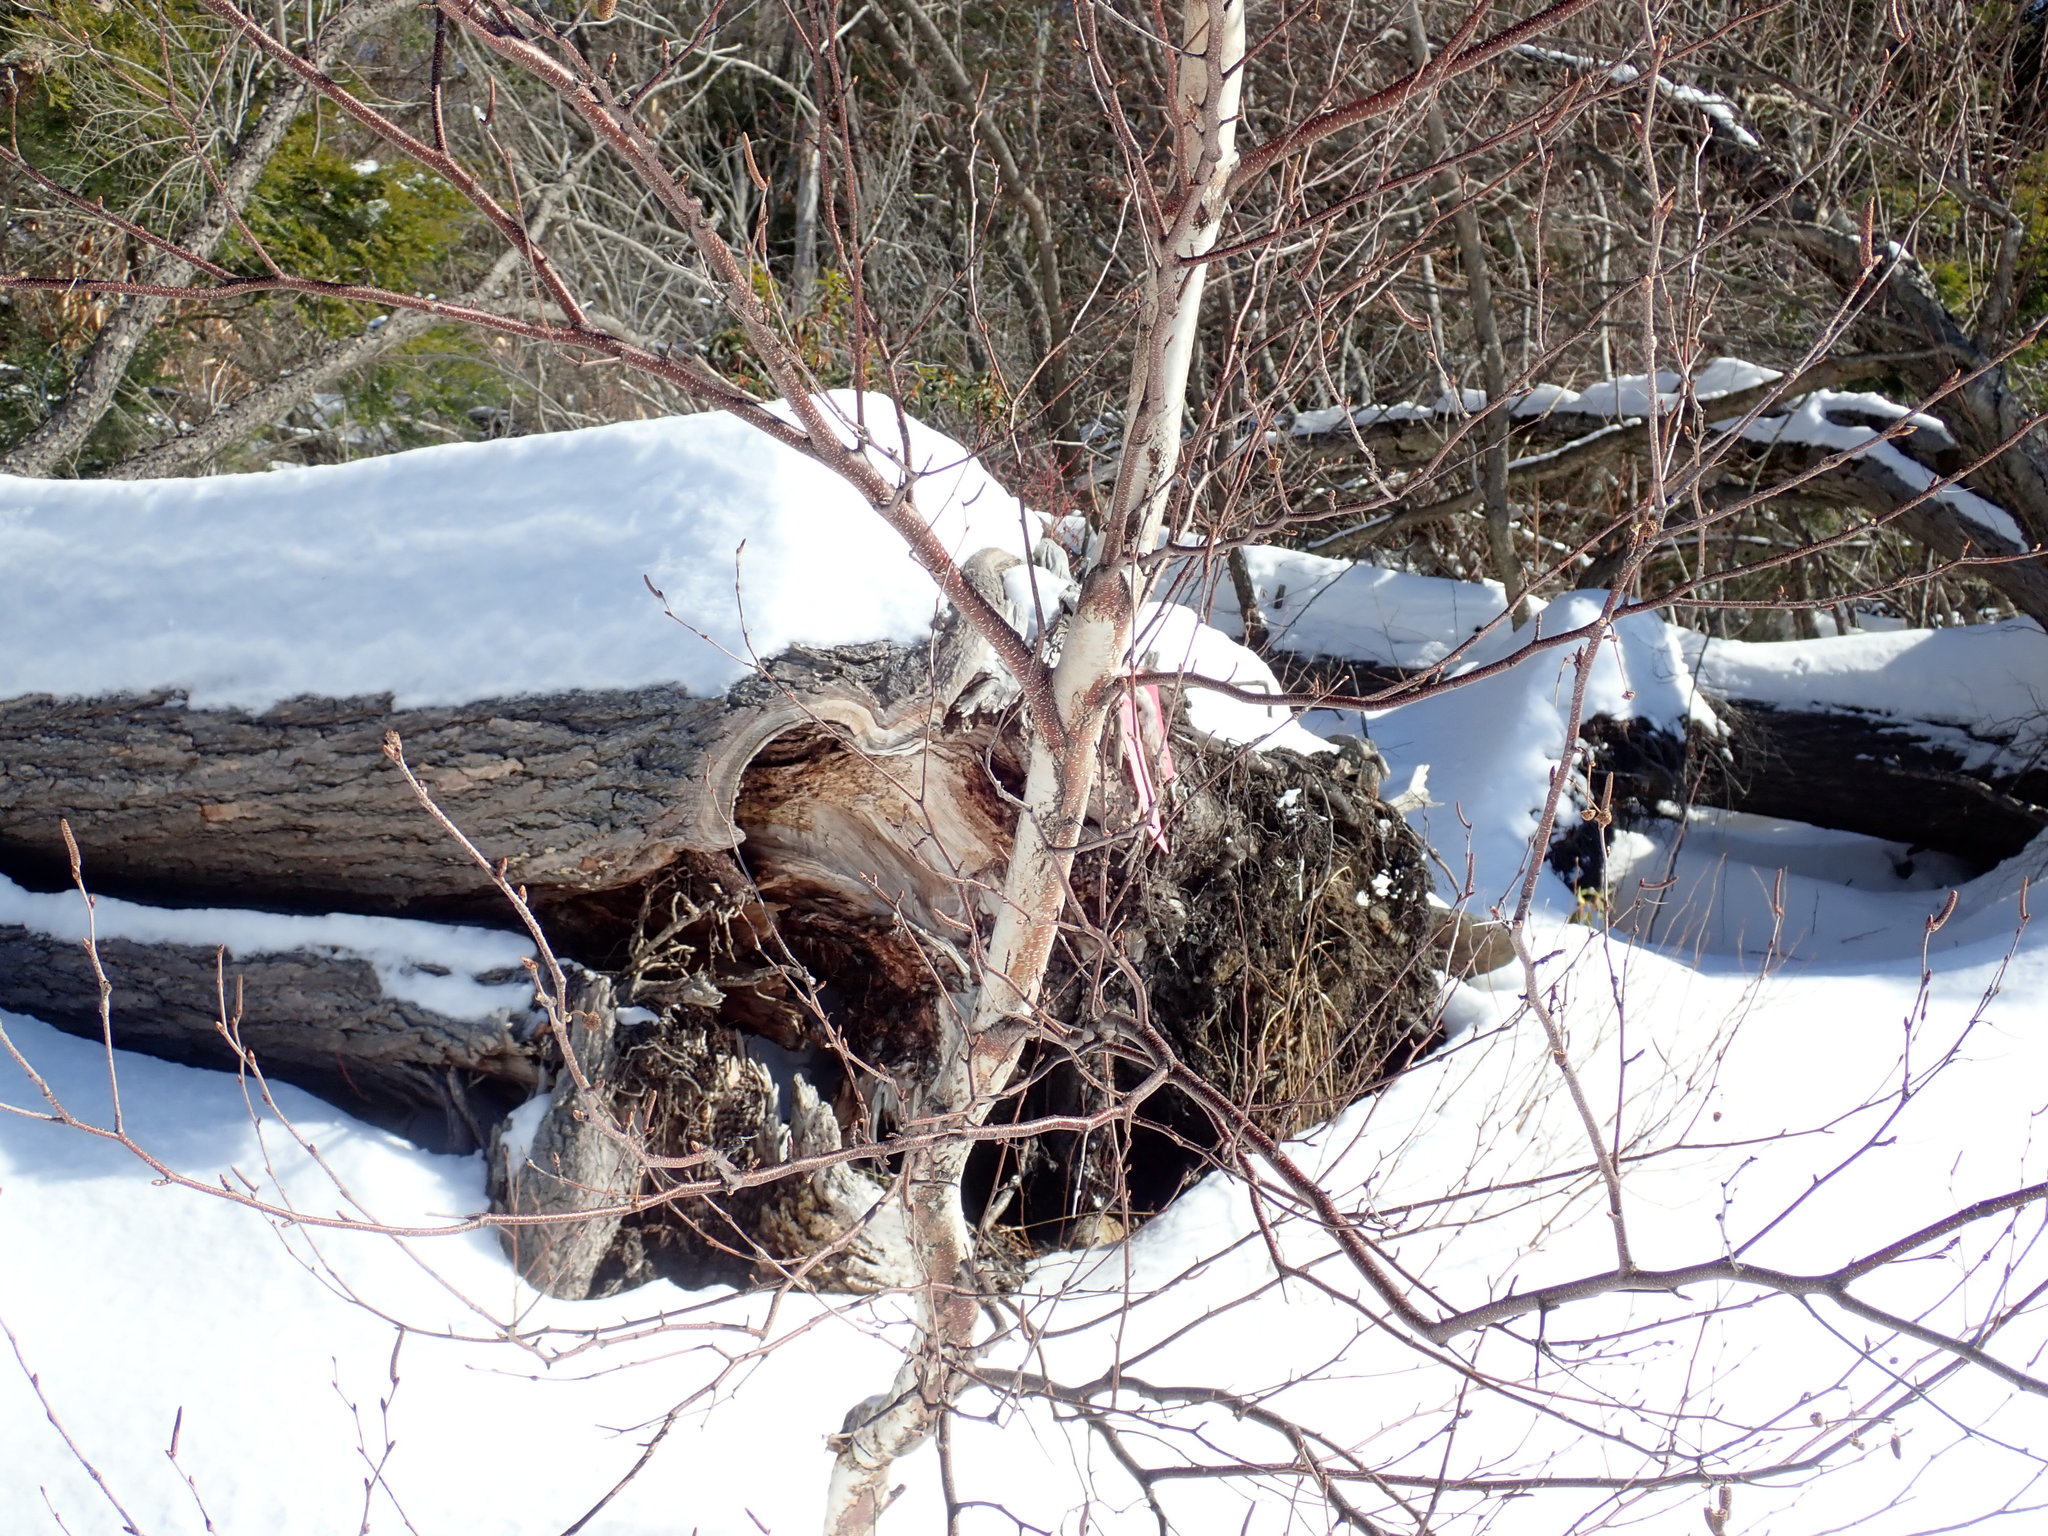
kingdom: Plantae
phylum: Tracheophyta
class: Magnoliopsida
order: Fagales
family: Betulaceae
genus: Betula
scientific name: Betula populifolia
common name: Fire birch
